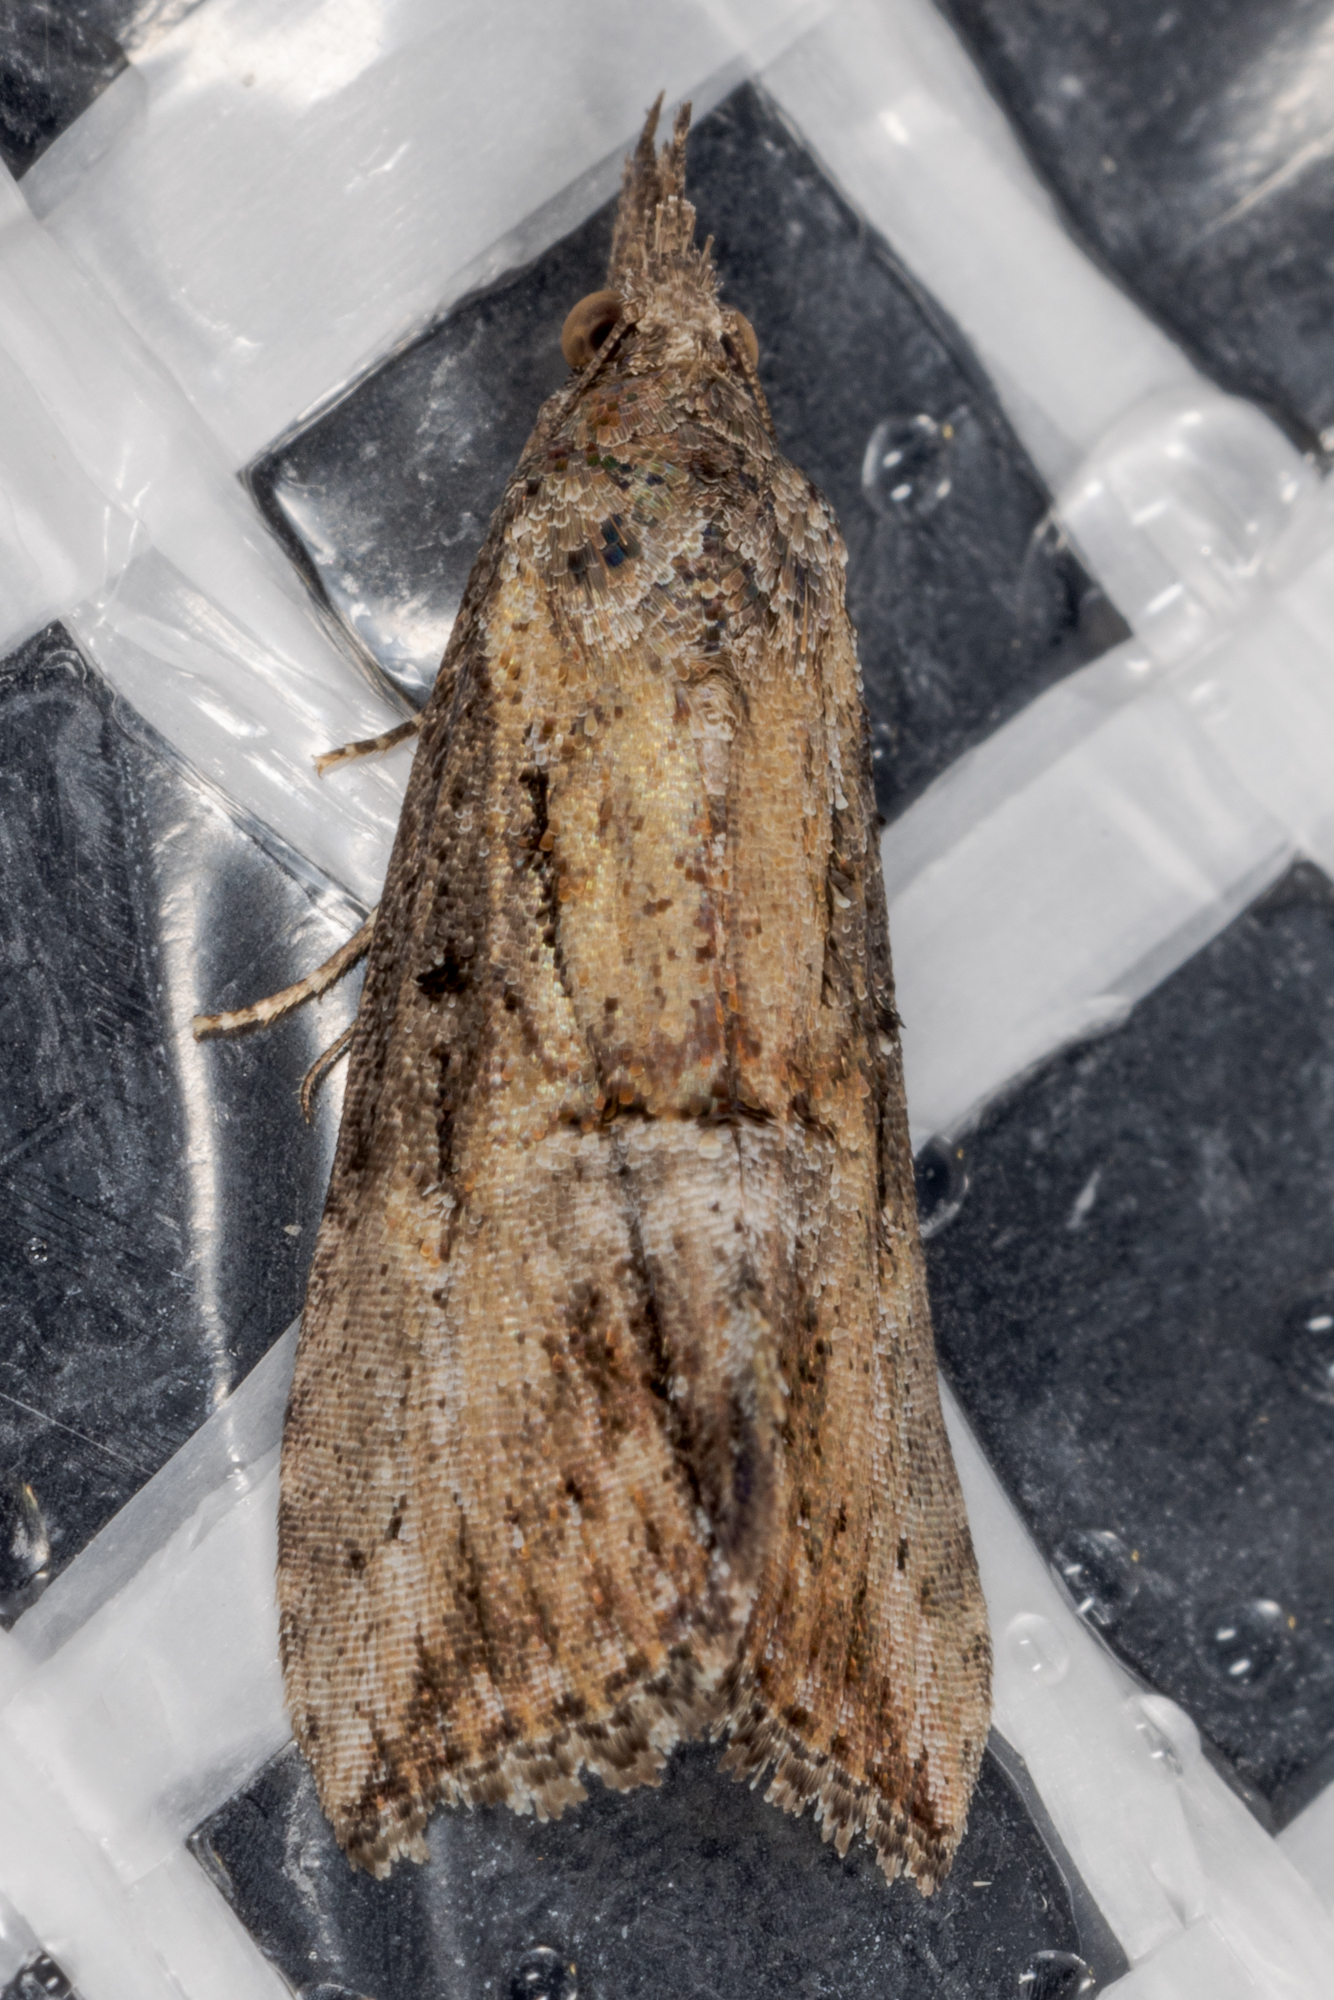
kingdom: Animalia
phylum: Arthropoda
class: Insecta
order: Lepidoptera
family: Erebidae
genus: Hypena
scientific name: Hypena scabra
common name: Green cloverworm
